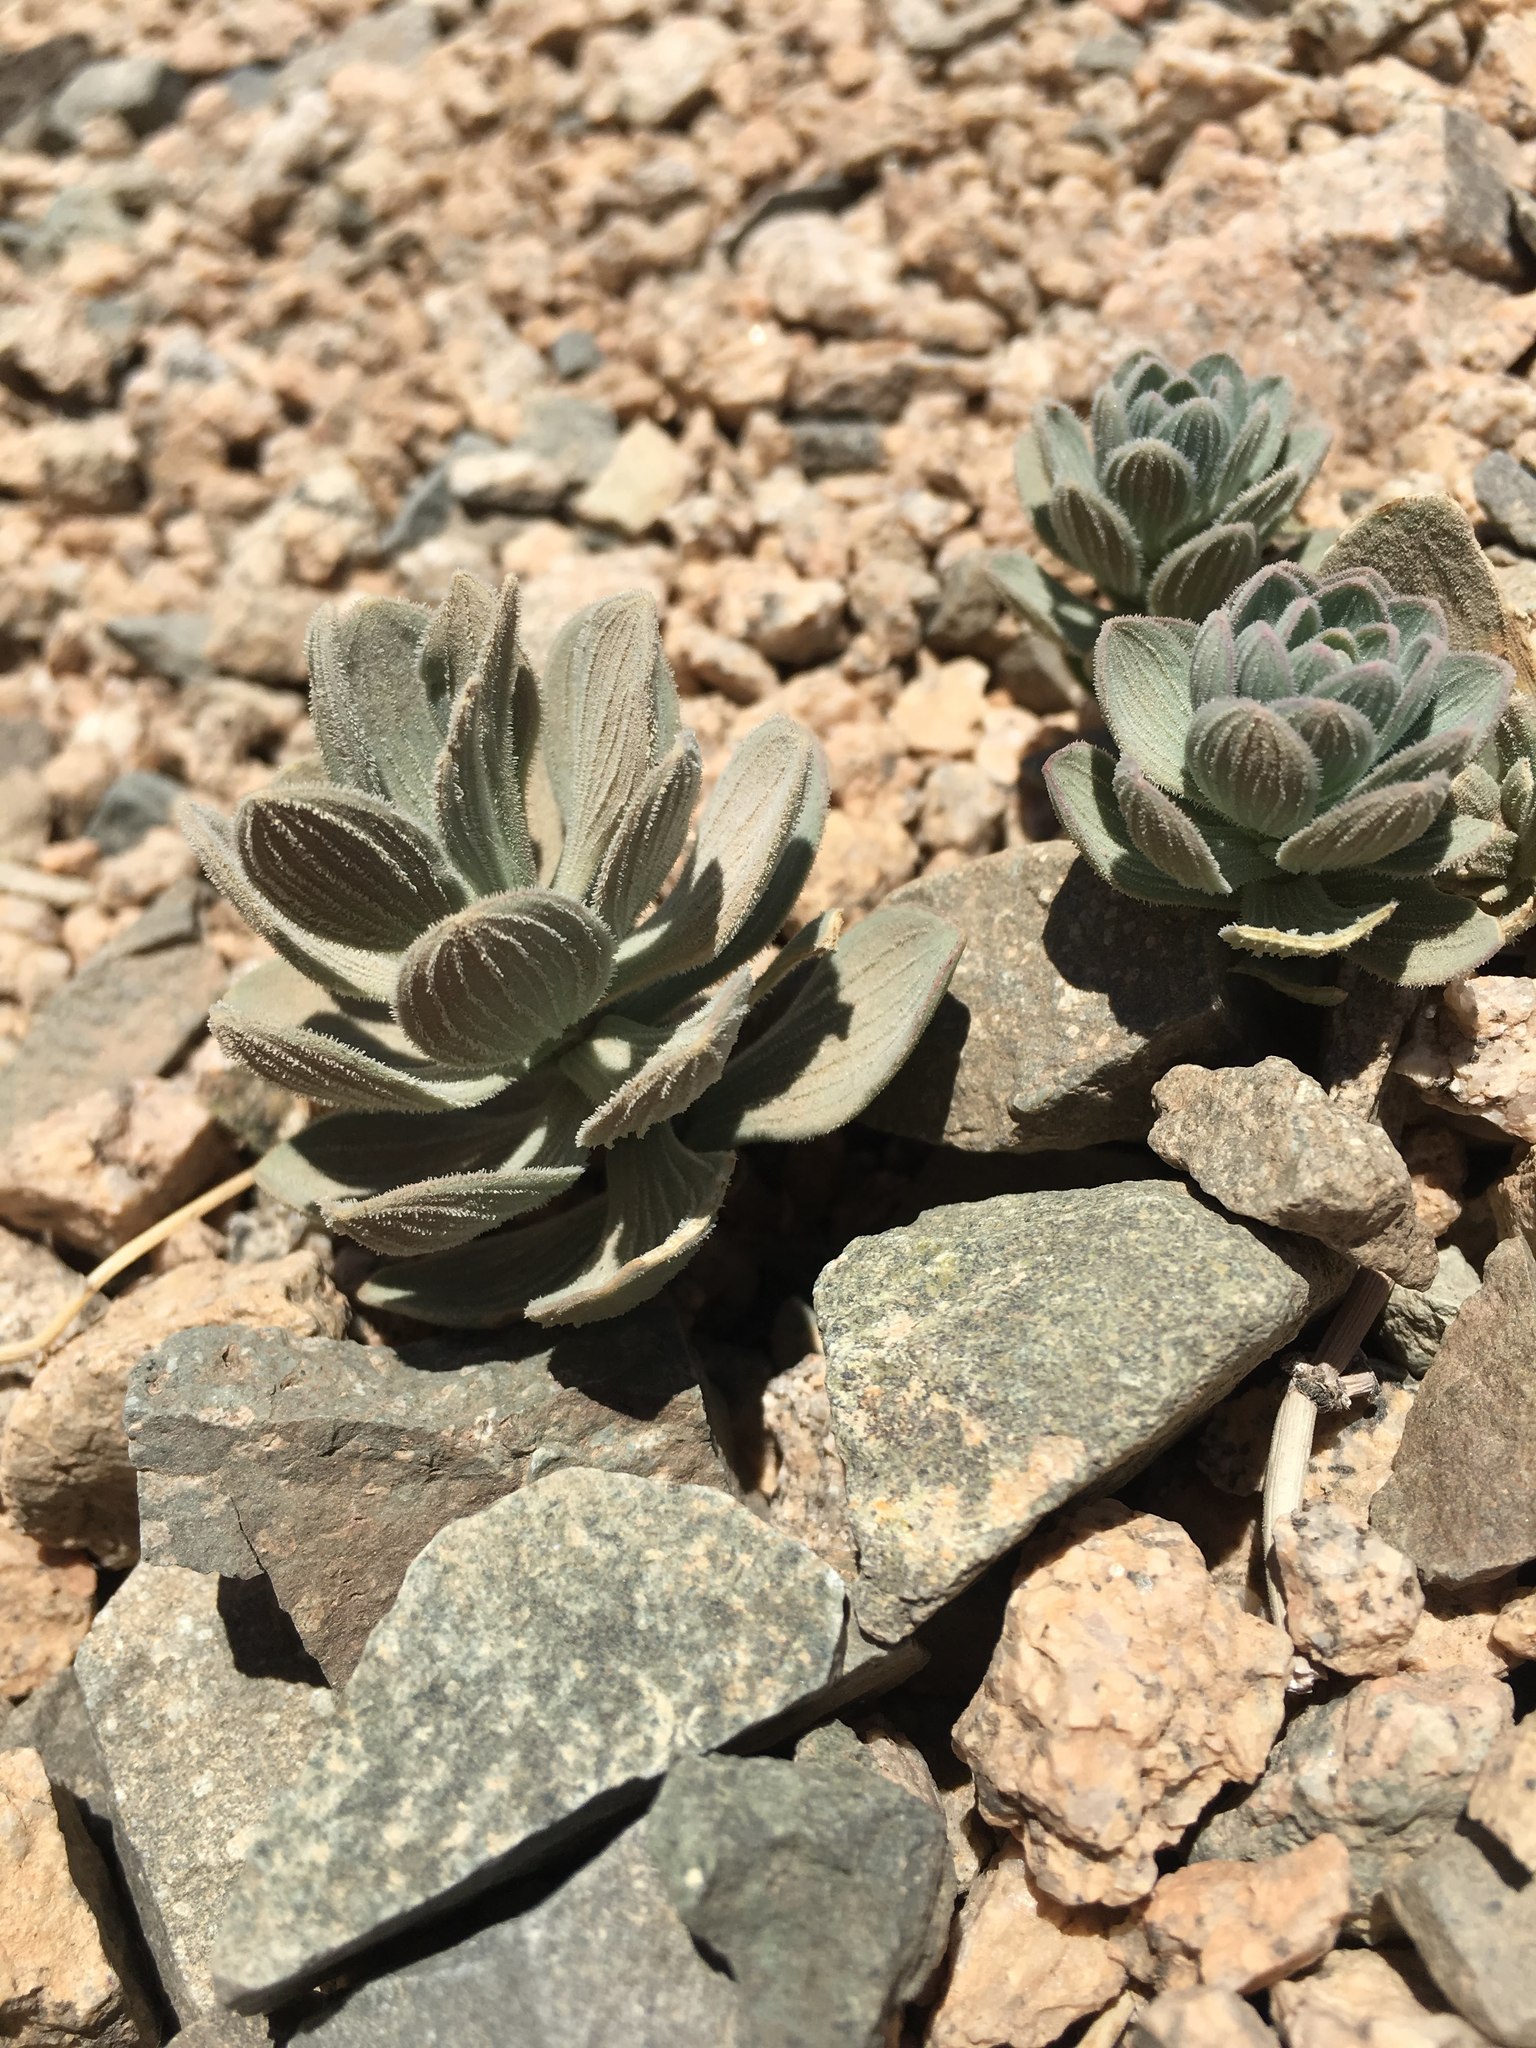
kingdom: Plantae
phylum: Tracheophyta
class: Liliopsida
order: Liliales
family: Alstroemeriaceae
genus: Alstroemeria
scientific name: Alstroemeria andina
